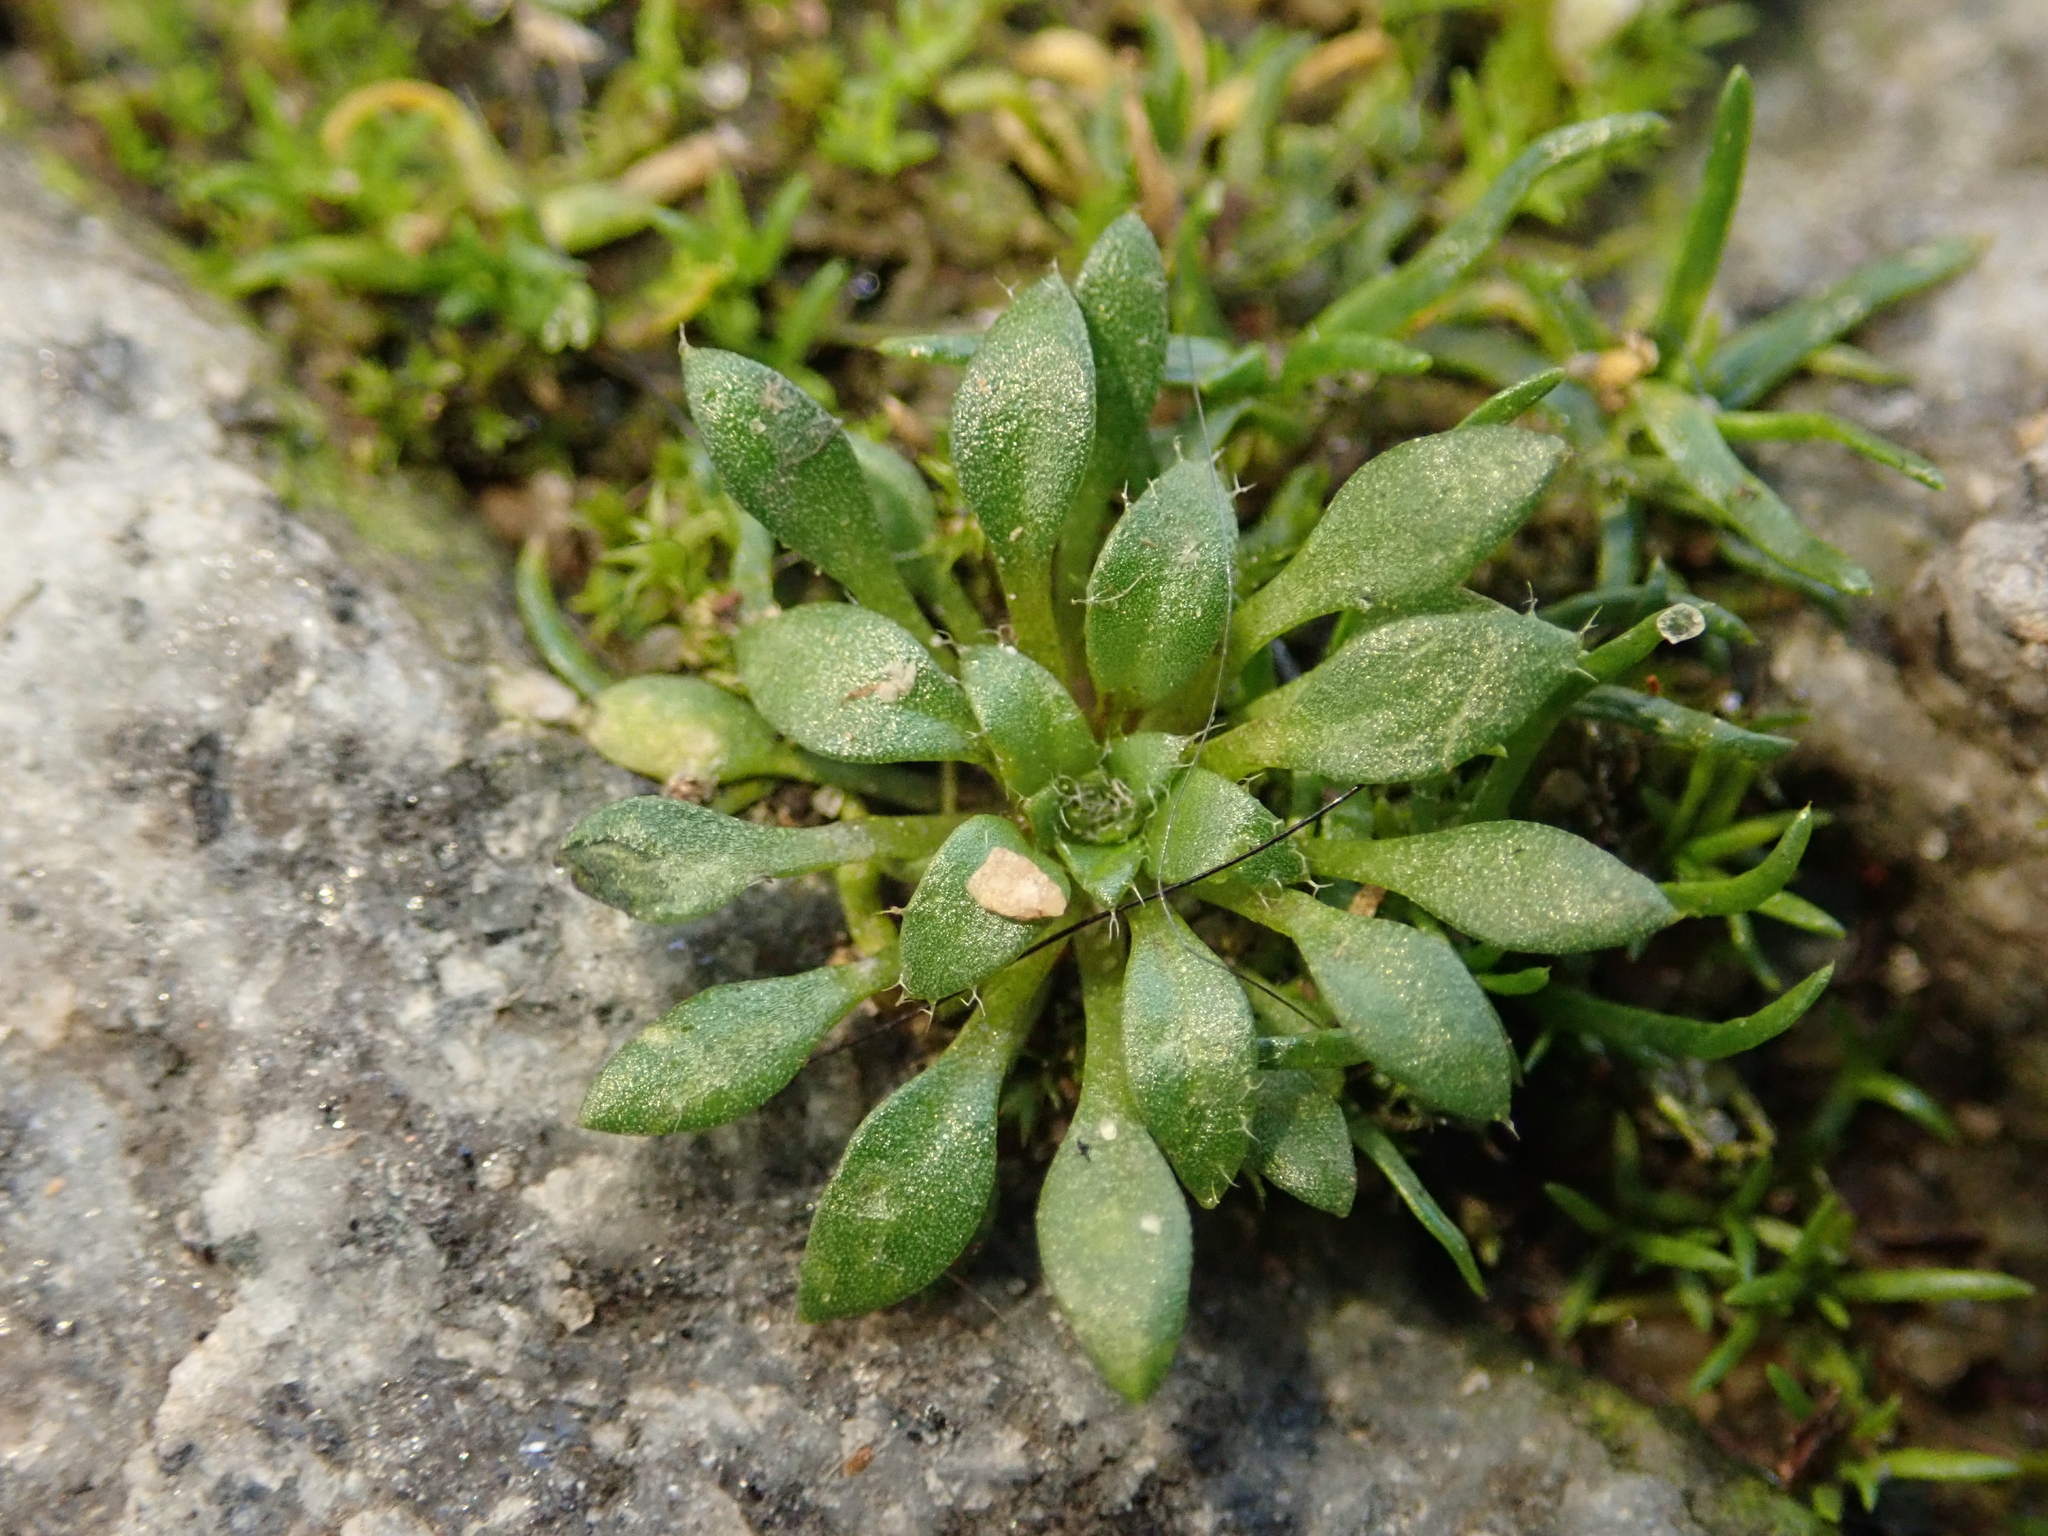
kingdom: Plantae
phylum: Tracheophyta
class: Magnoliopsida
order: Brassicales
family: Brassicaceae
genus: Draba
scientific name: Draba verna
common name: Spring draba
